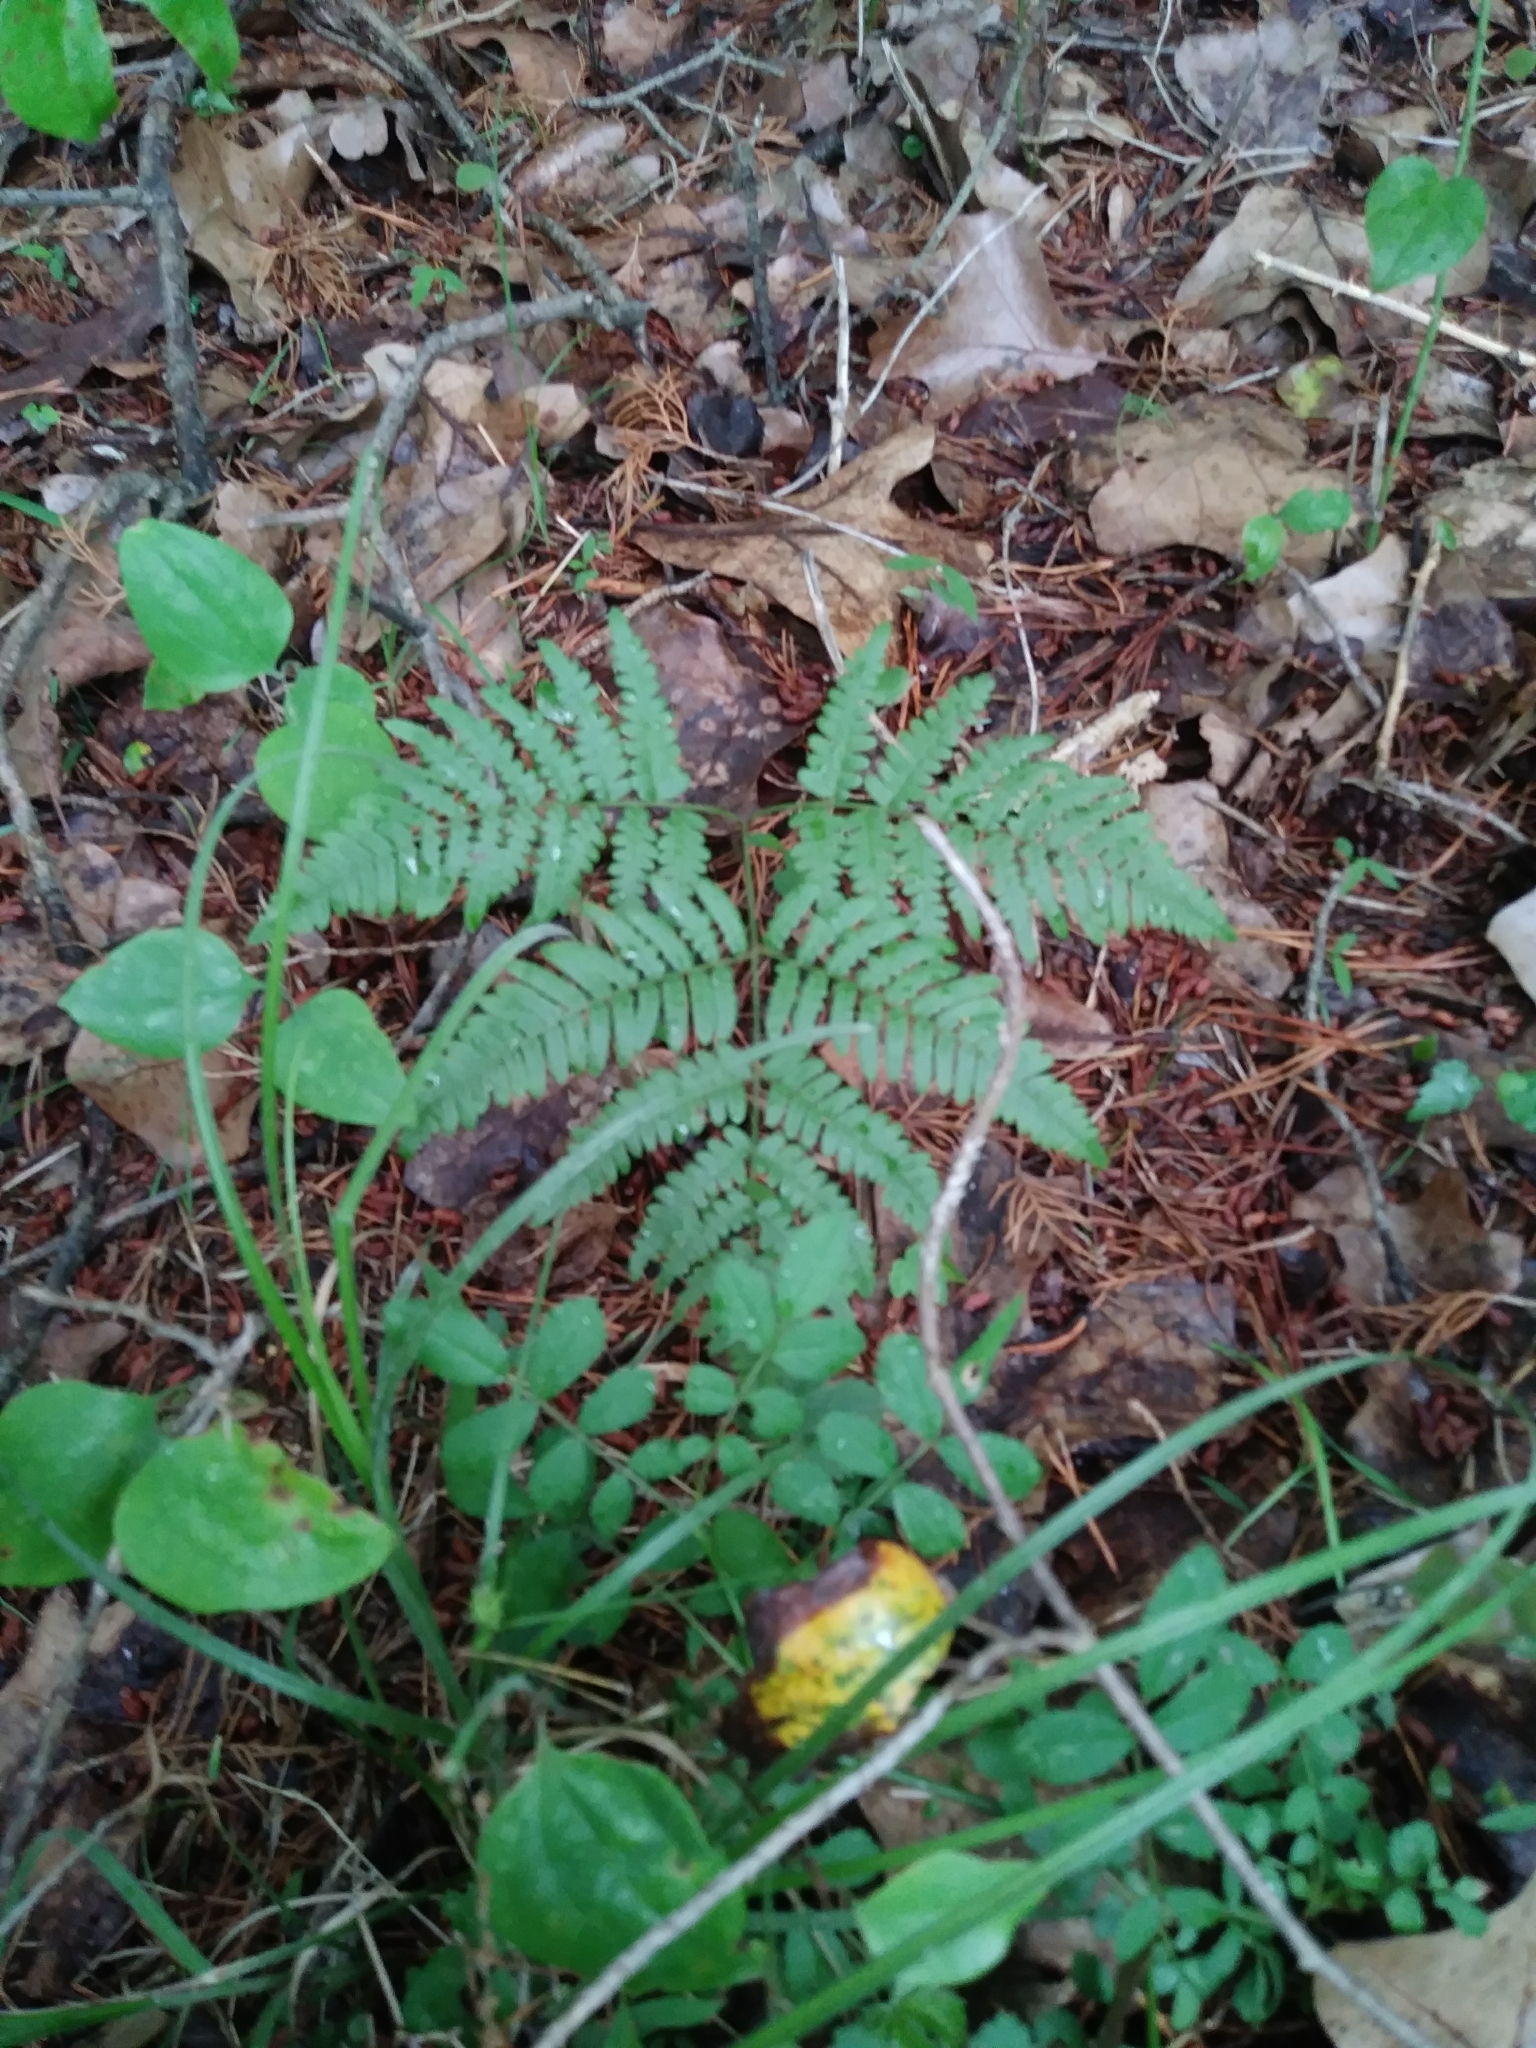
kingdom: Plantae
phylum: Tracheophyta
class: Polypodiopsida
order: Polypodiales
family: Dennstaedtiaceae
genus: Pteridium
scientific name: Pteridium aquilinum
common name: Bracken
